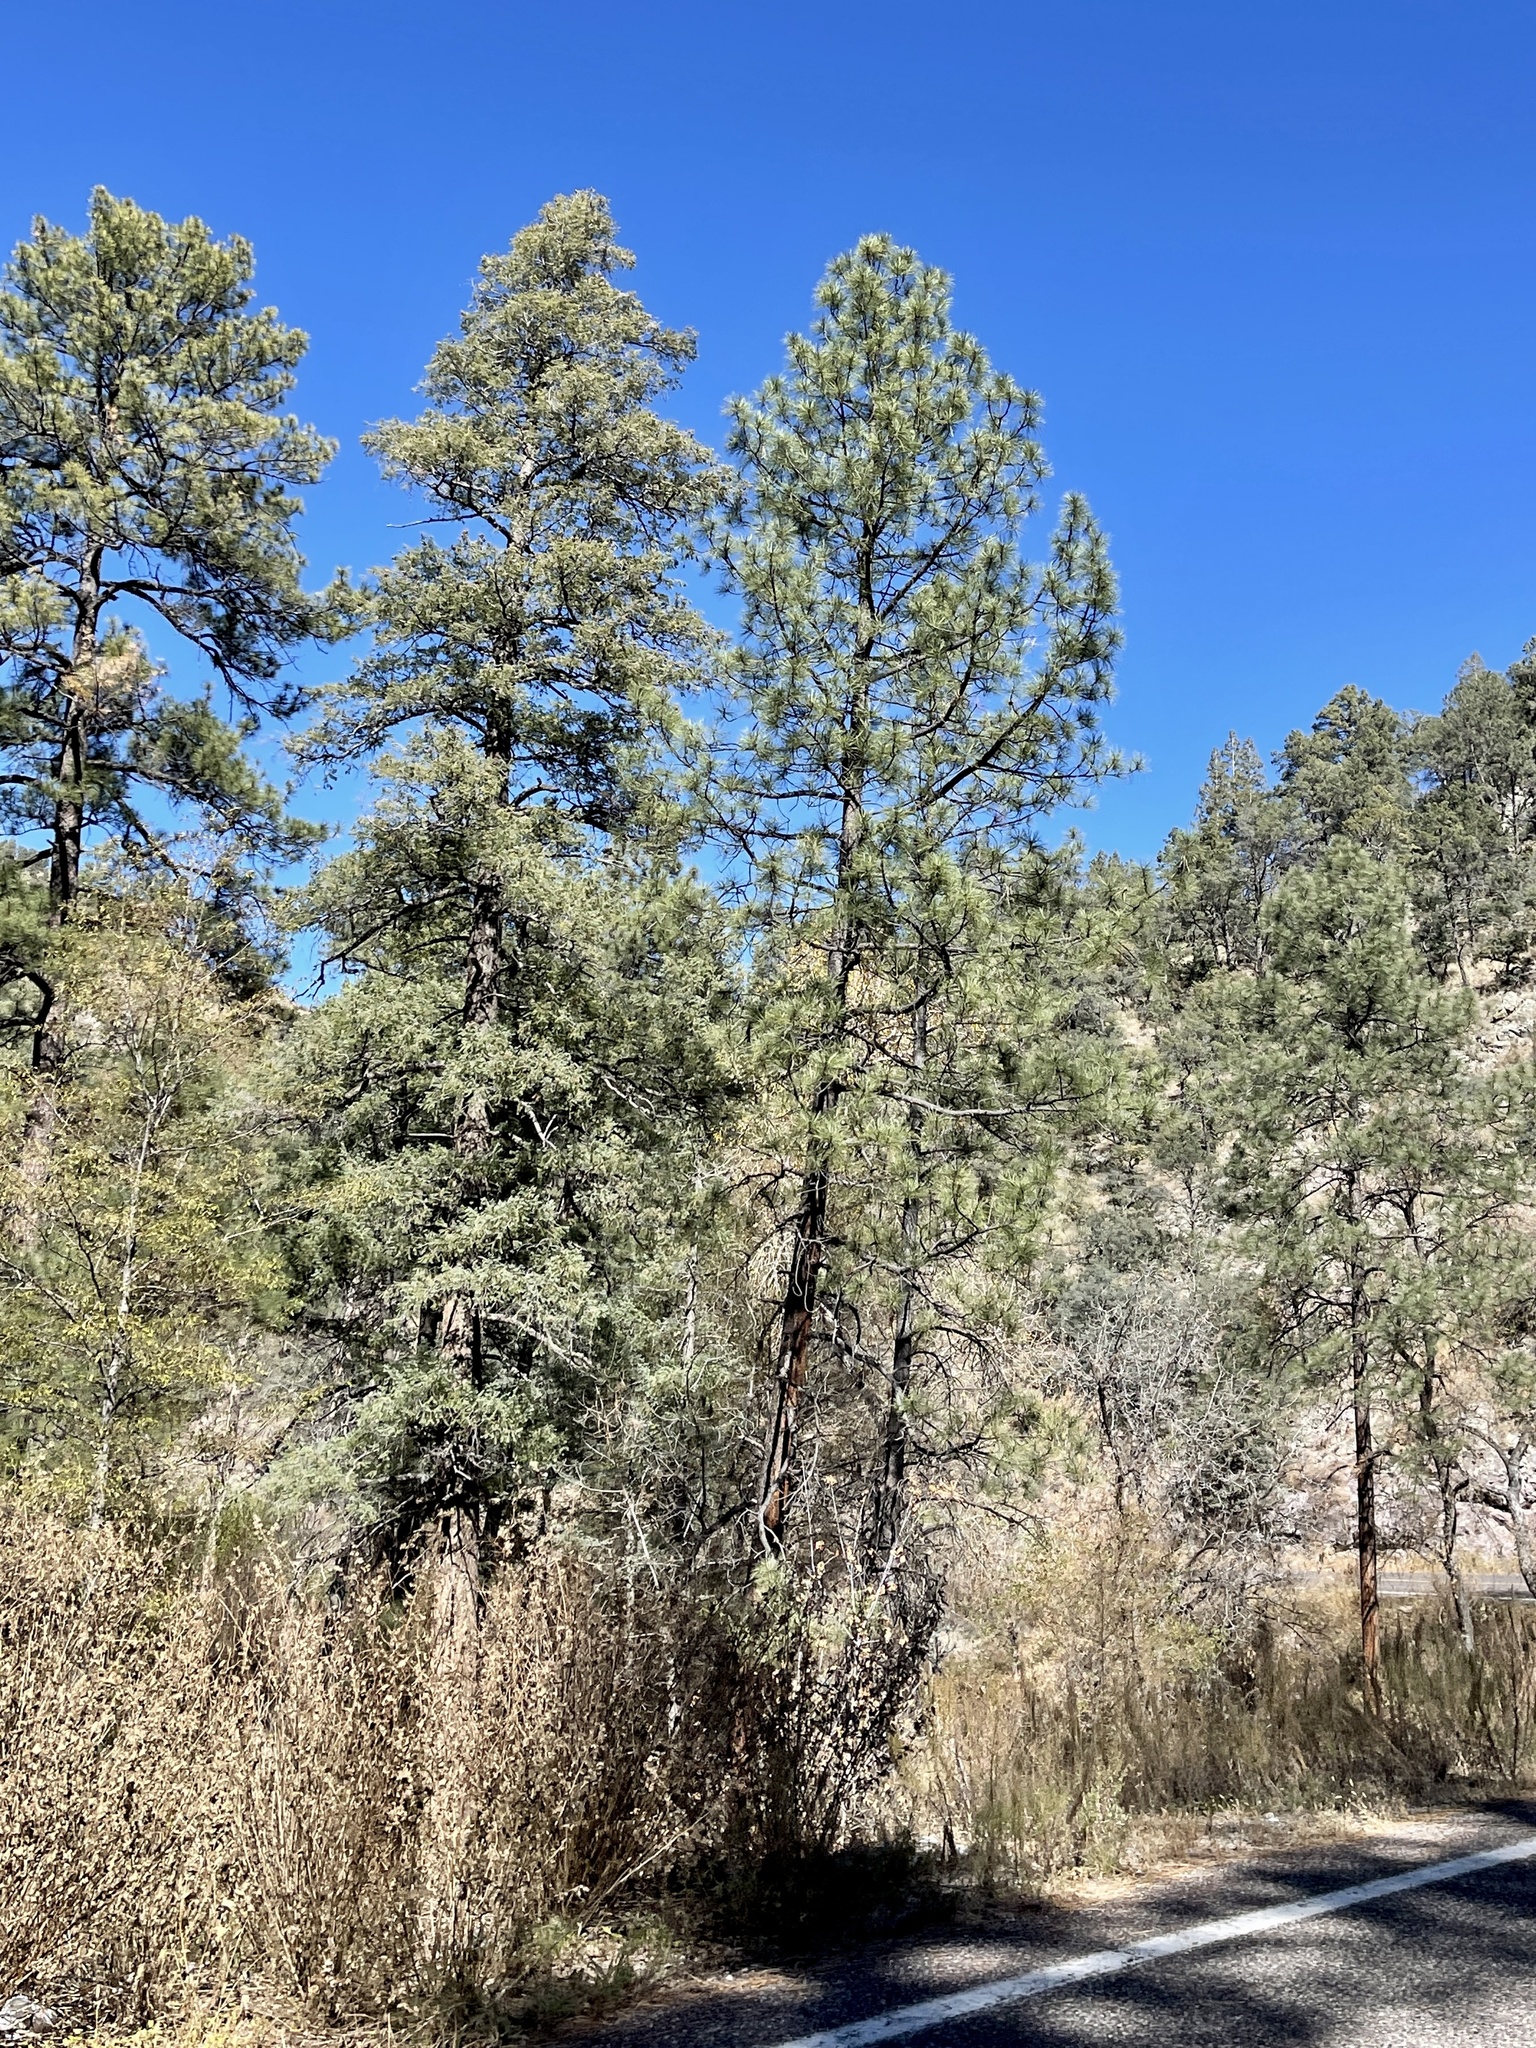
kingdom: Plantae
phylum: Tracheophyta
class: Pinopsida
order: Pinales
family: Pinaceae
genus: Pinus
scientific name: Pinus ponderosa
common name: Western yellow-pine
